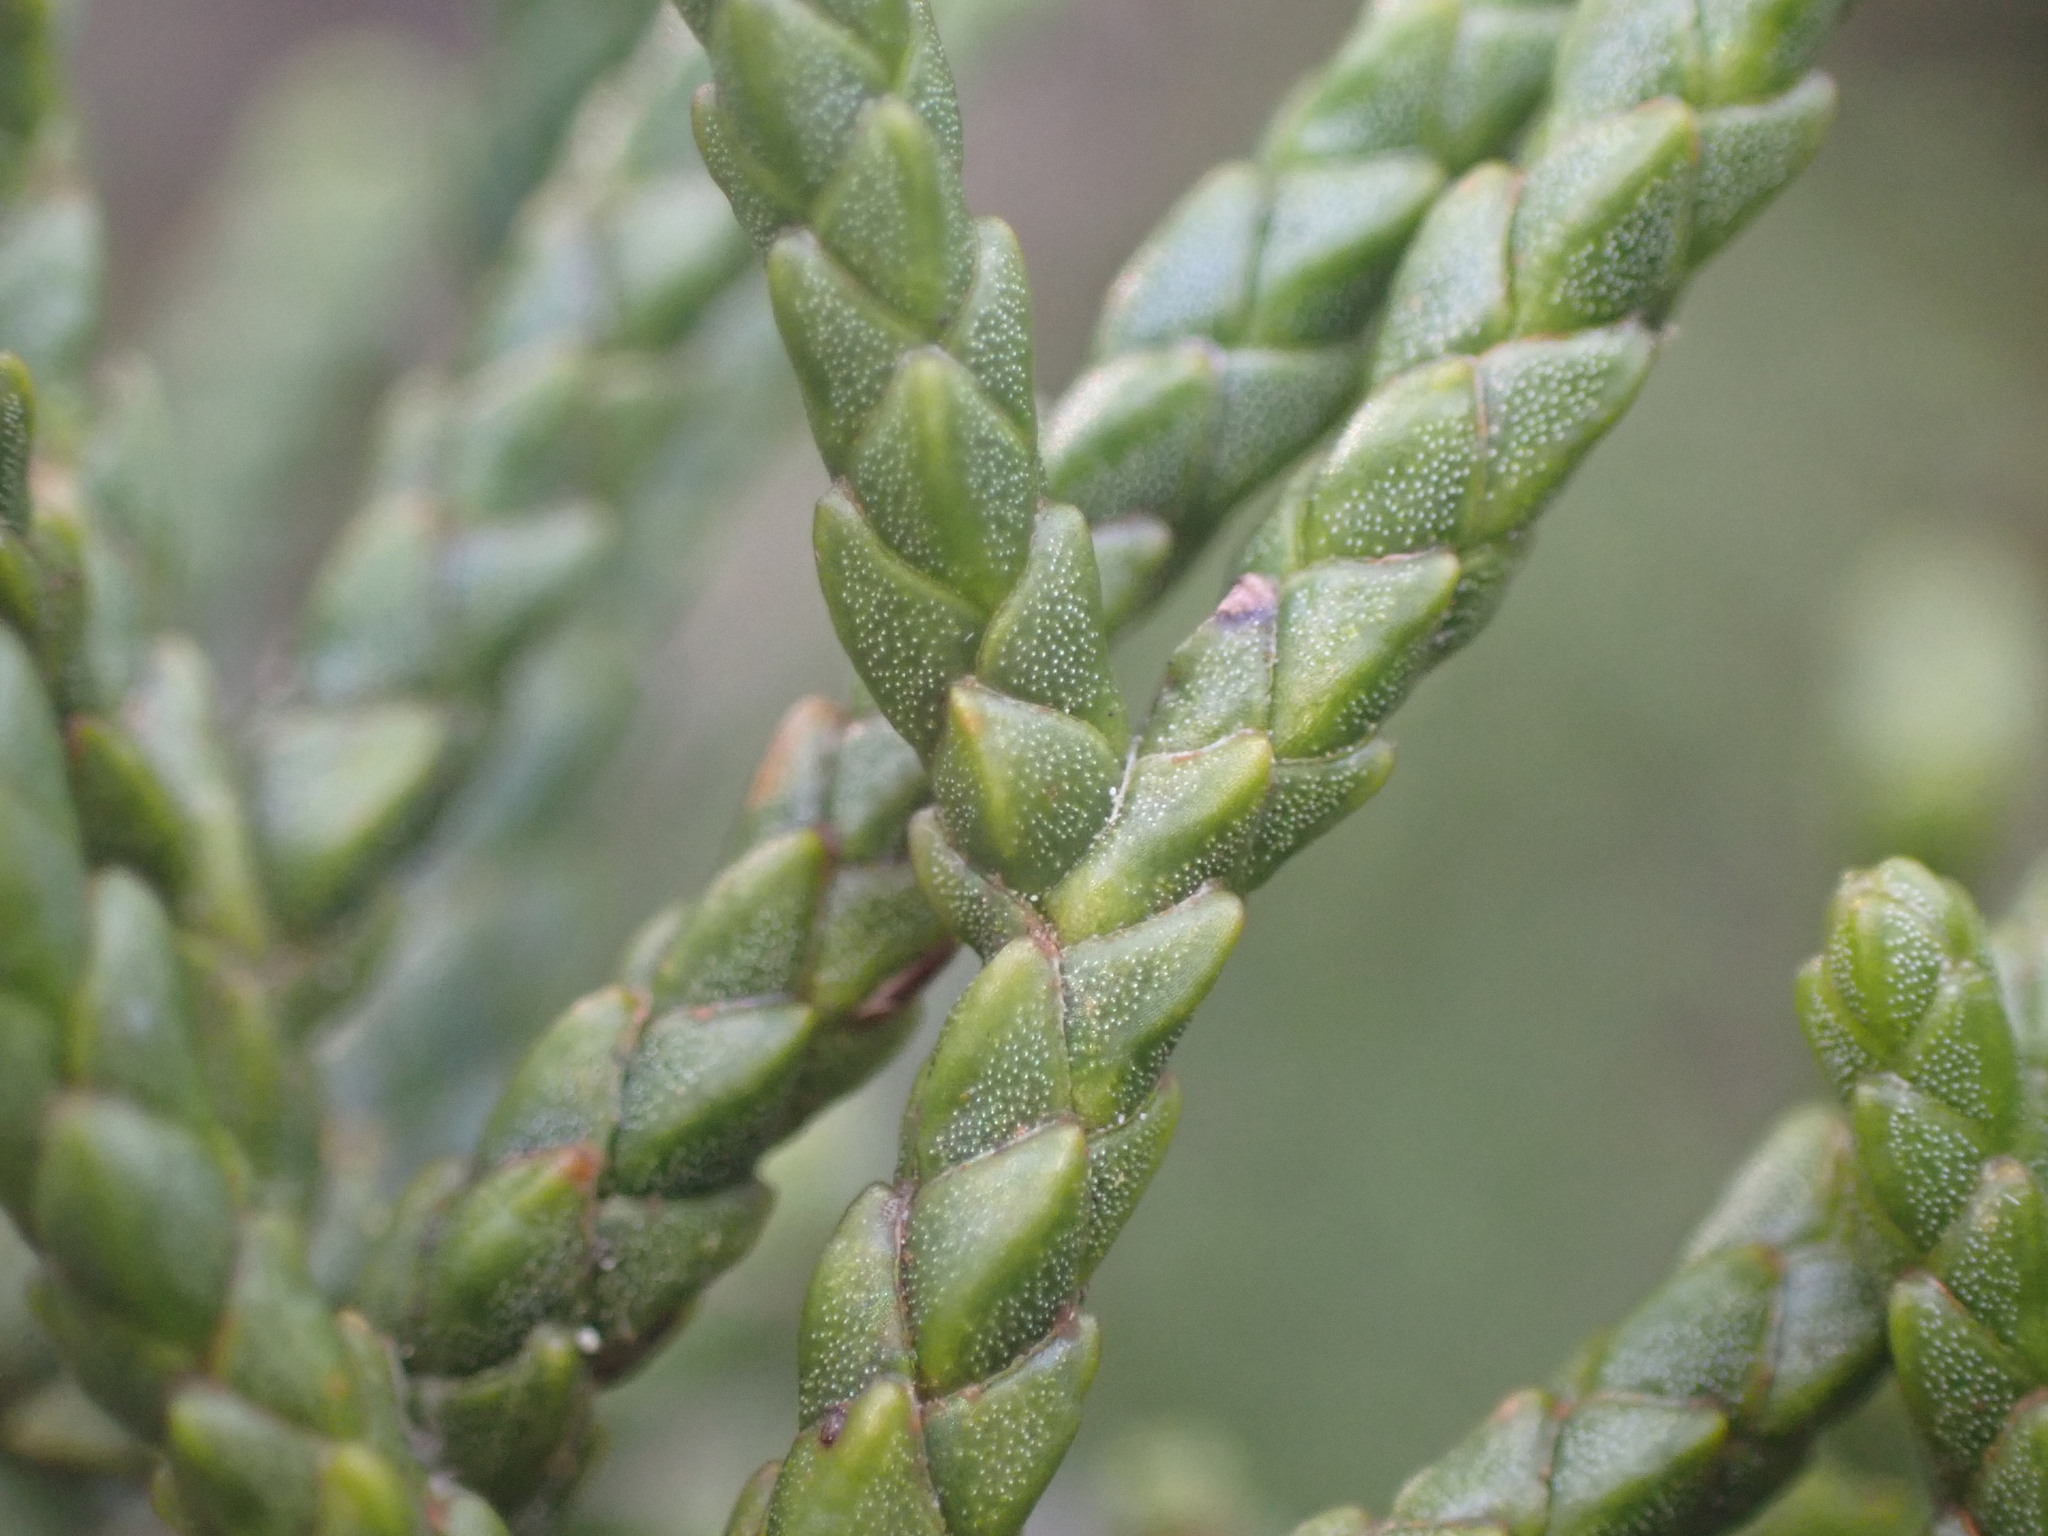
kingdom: Plantae
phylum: Tracheophyta
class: Pinopsida
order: Pinales
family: Podocarpaceae
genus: Halocarpus
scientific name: Halocarpus biformis
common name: Alpine tarwood
